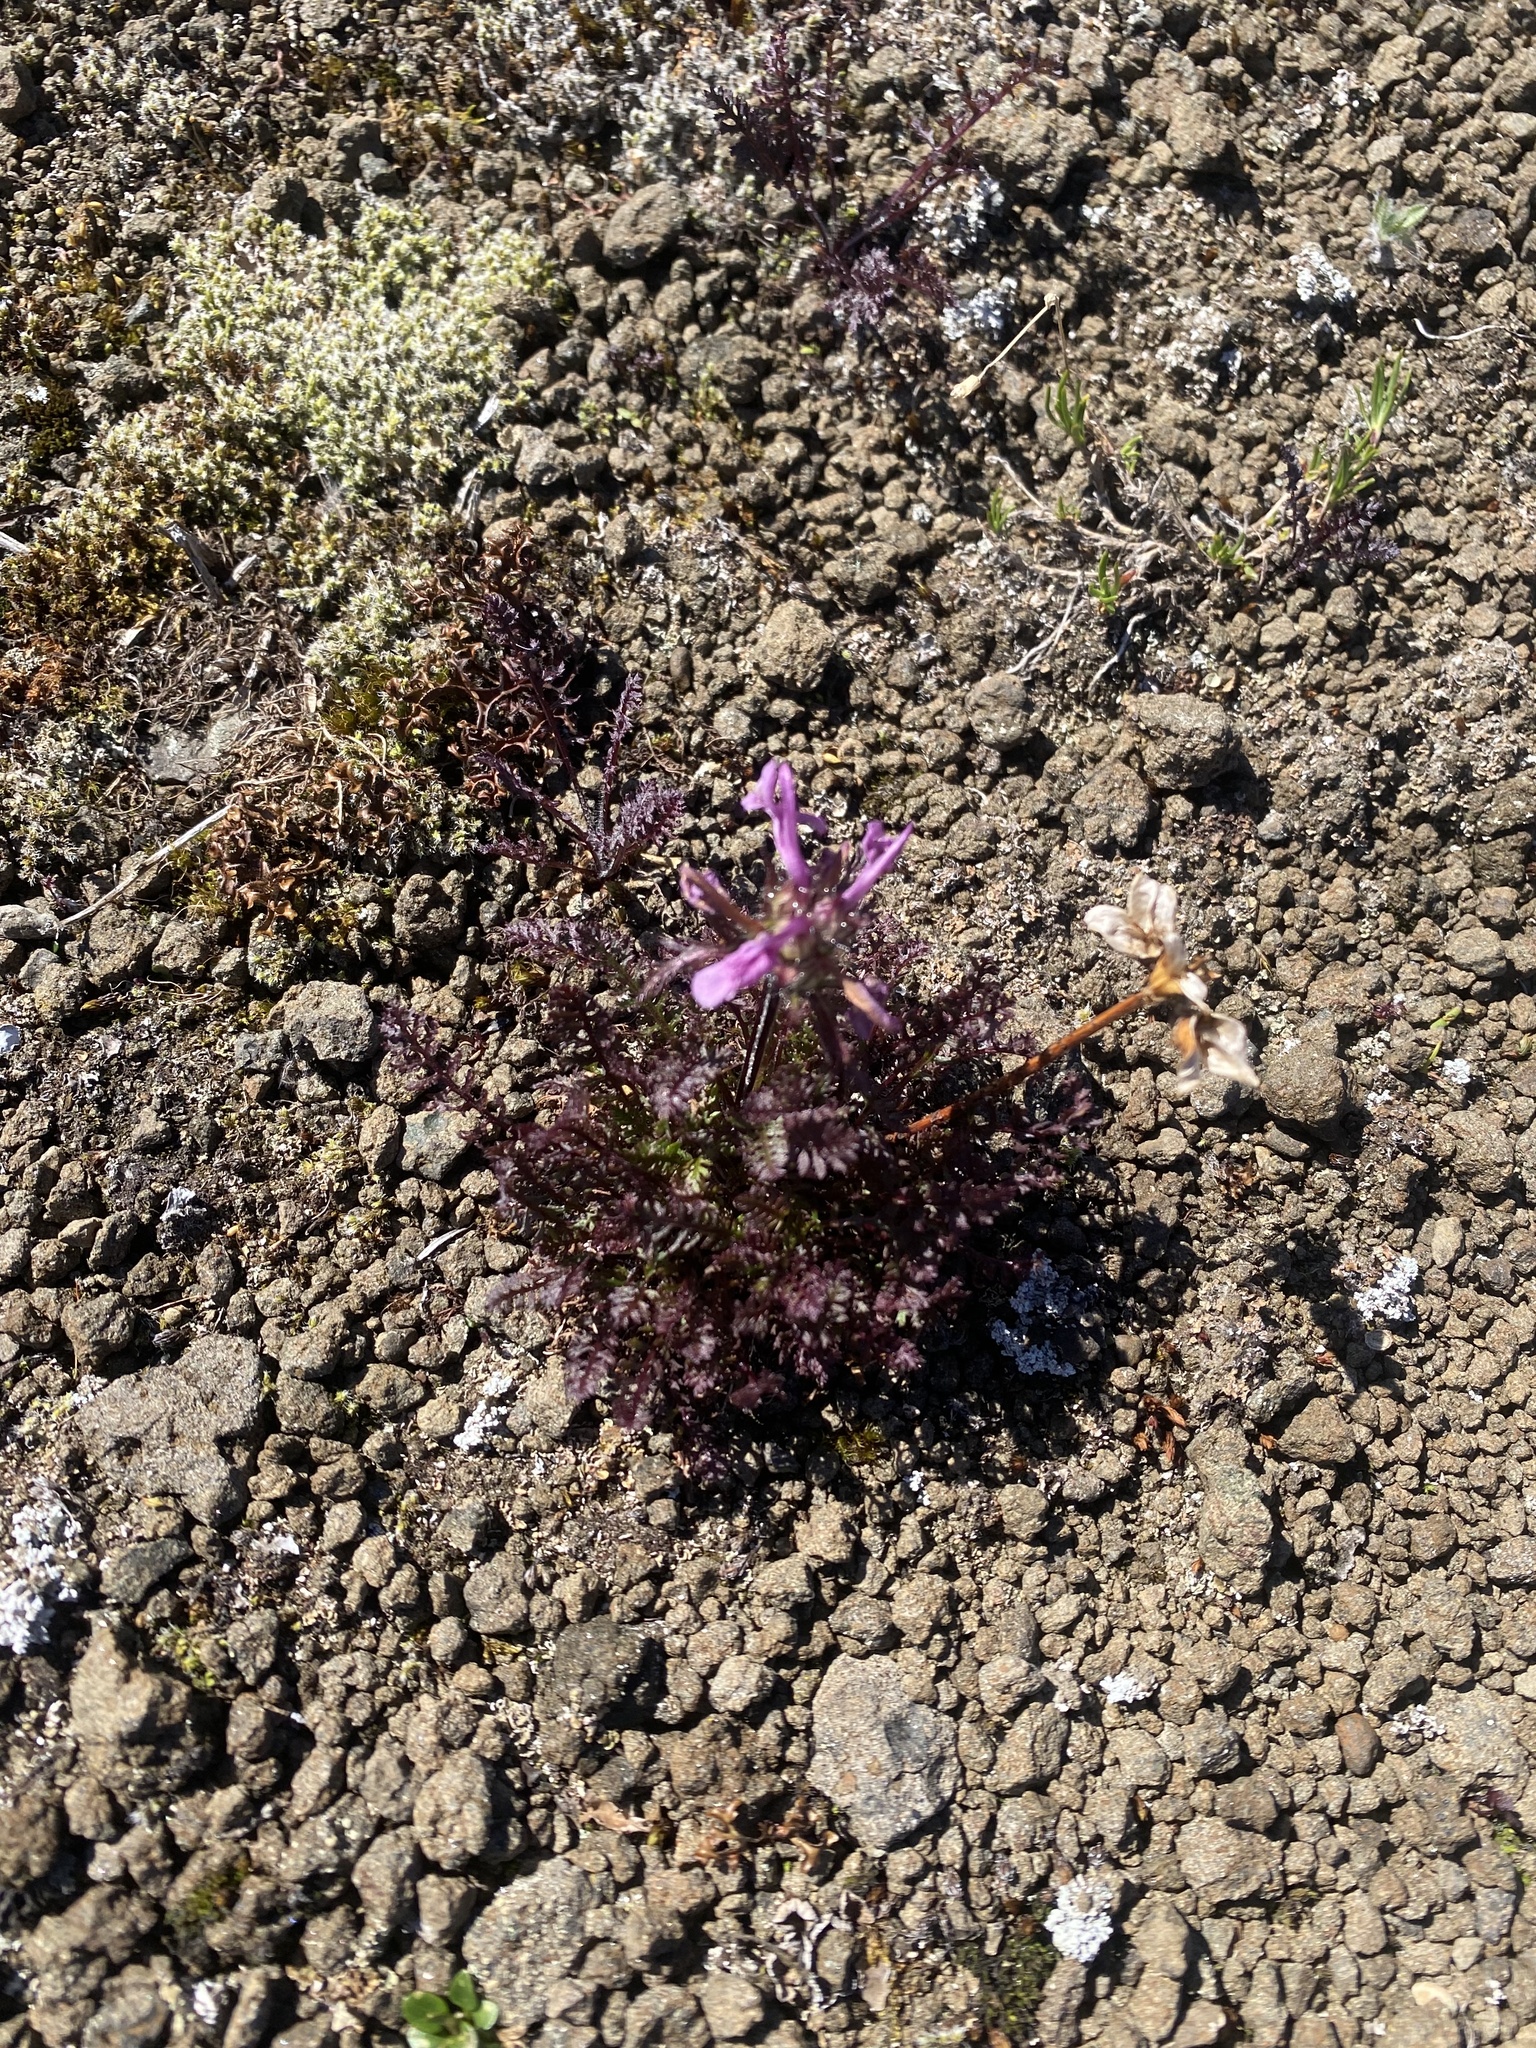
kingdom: Plantae
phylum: Tracheophyta
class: Magnoliopsida
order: Lamiales
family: Orobanchaceae
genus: Pedicularis
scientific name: Pedicularis amoena
